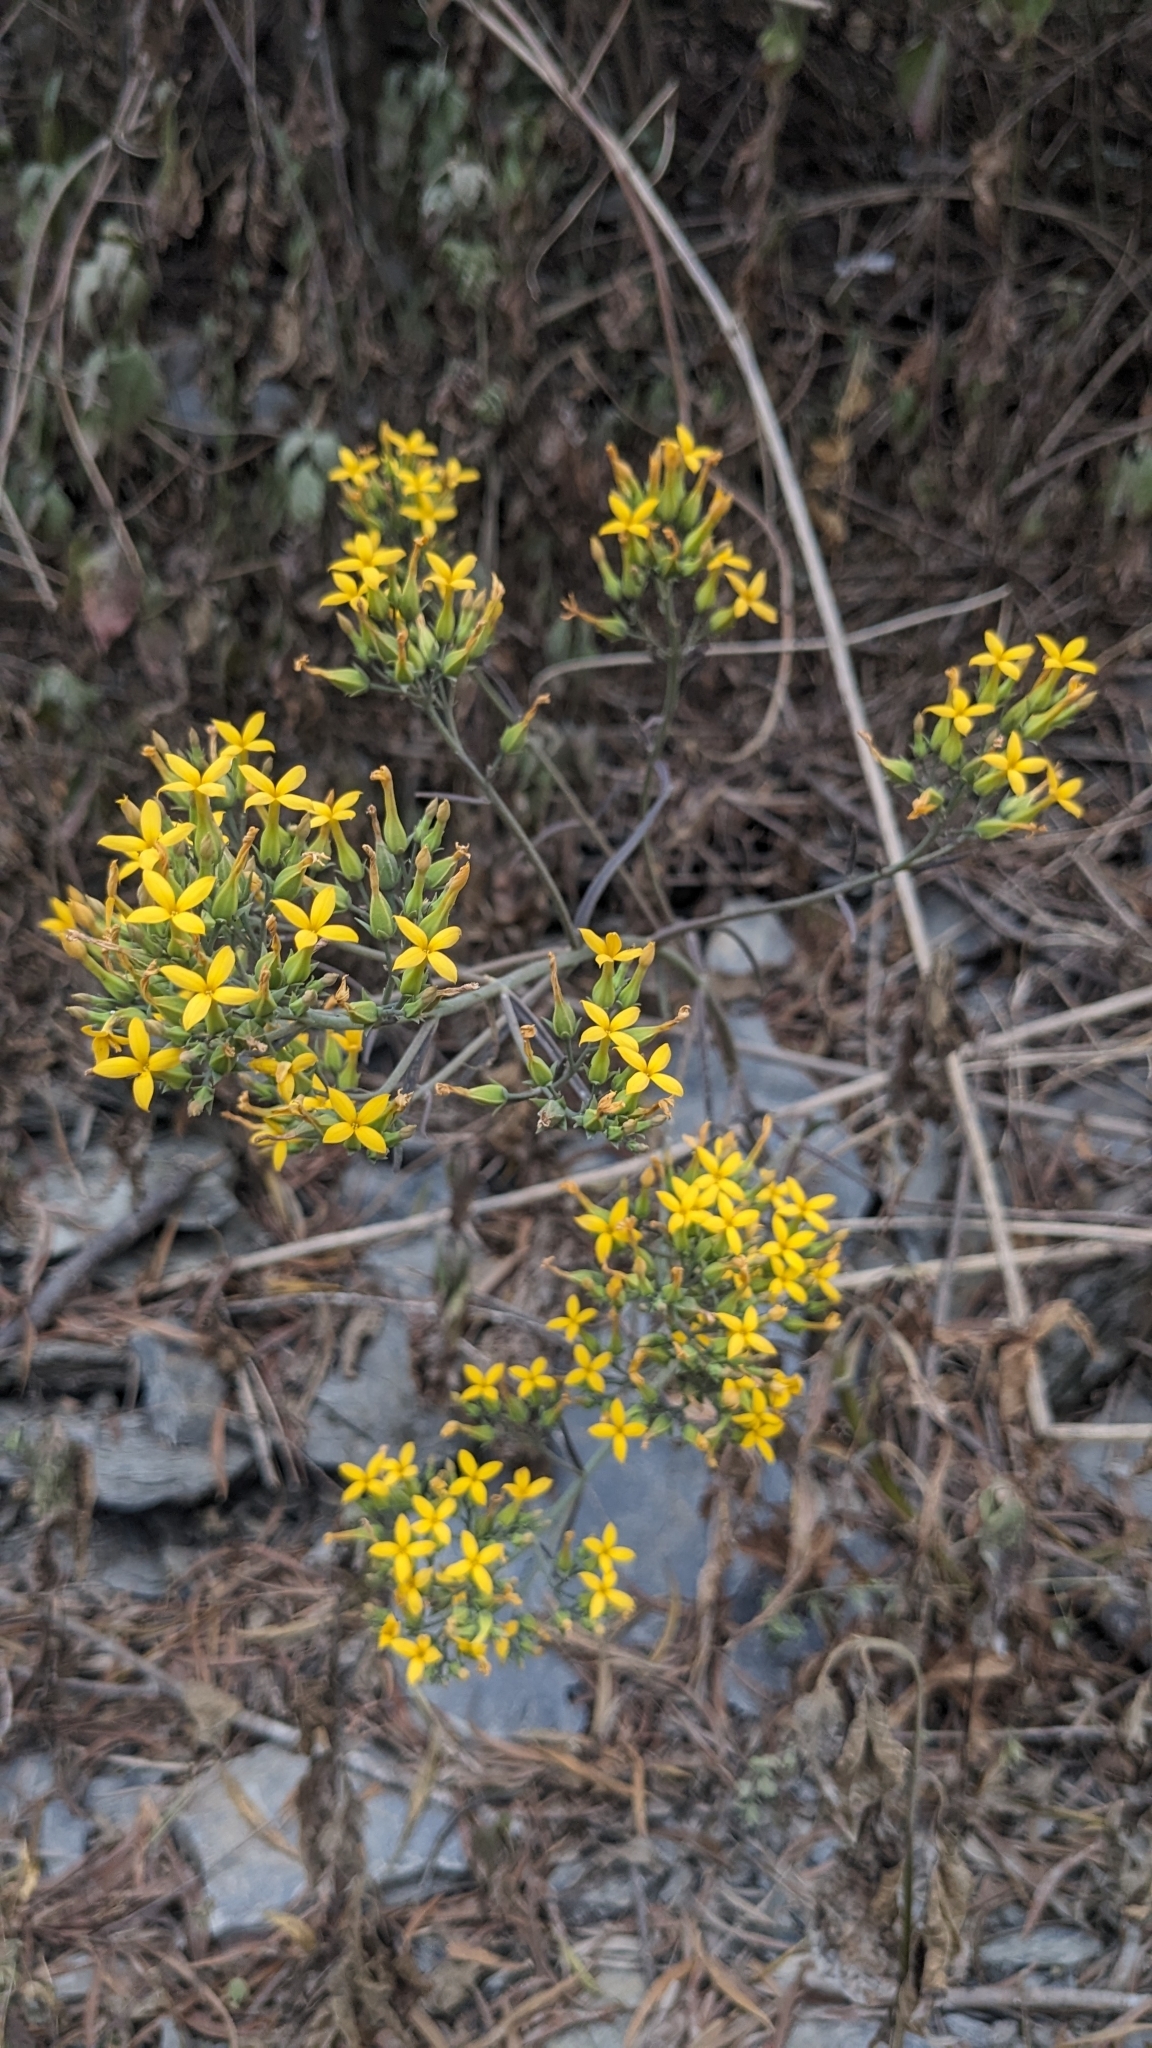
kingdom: Plantae
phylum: Tracheophyta
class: Magnoliopsida
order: Saxifragales
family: Crassulaceae
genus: Kalanchoe
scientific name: Kalanchoe ceratophylla
